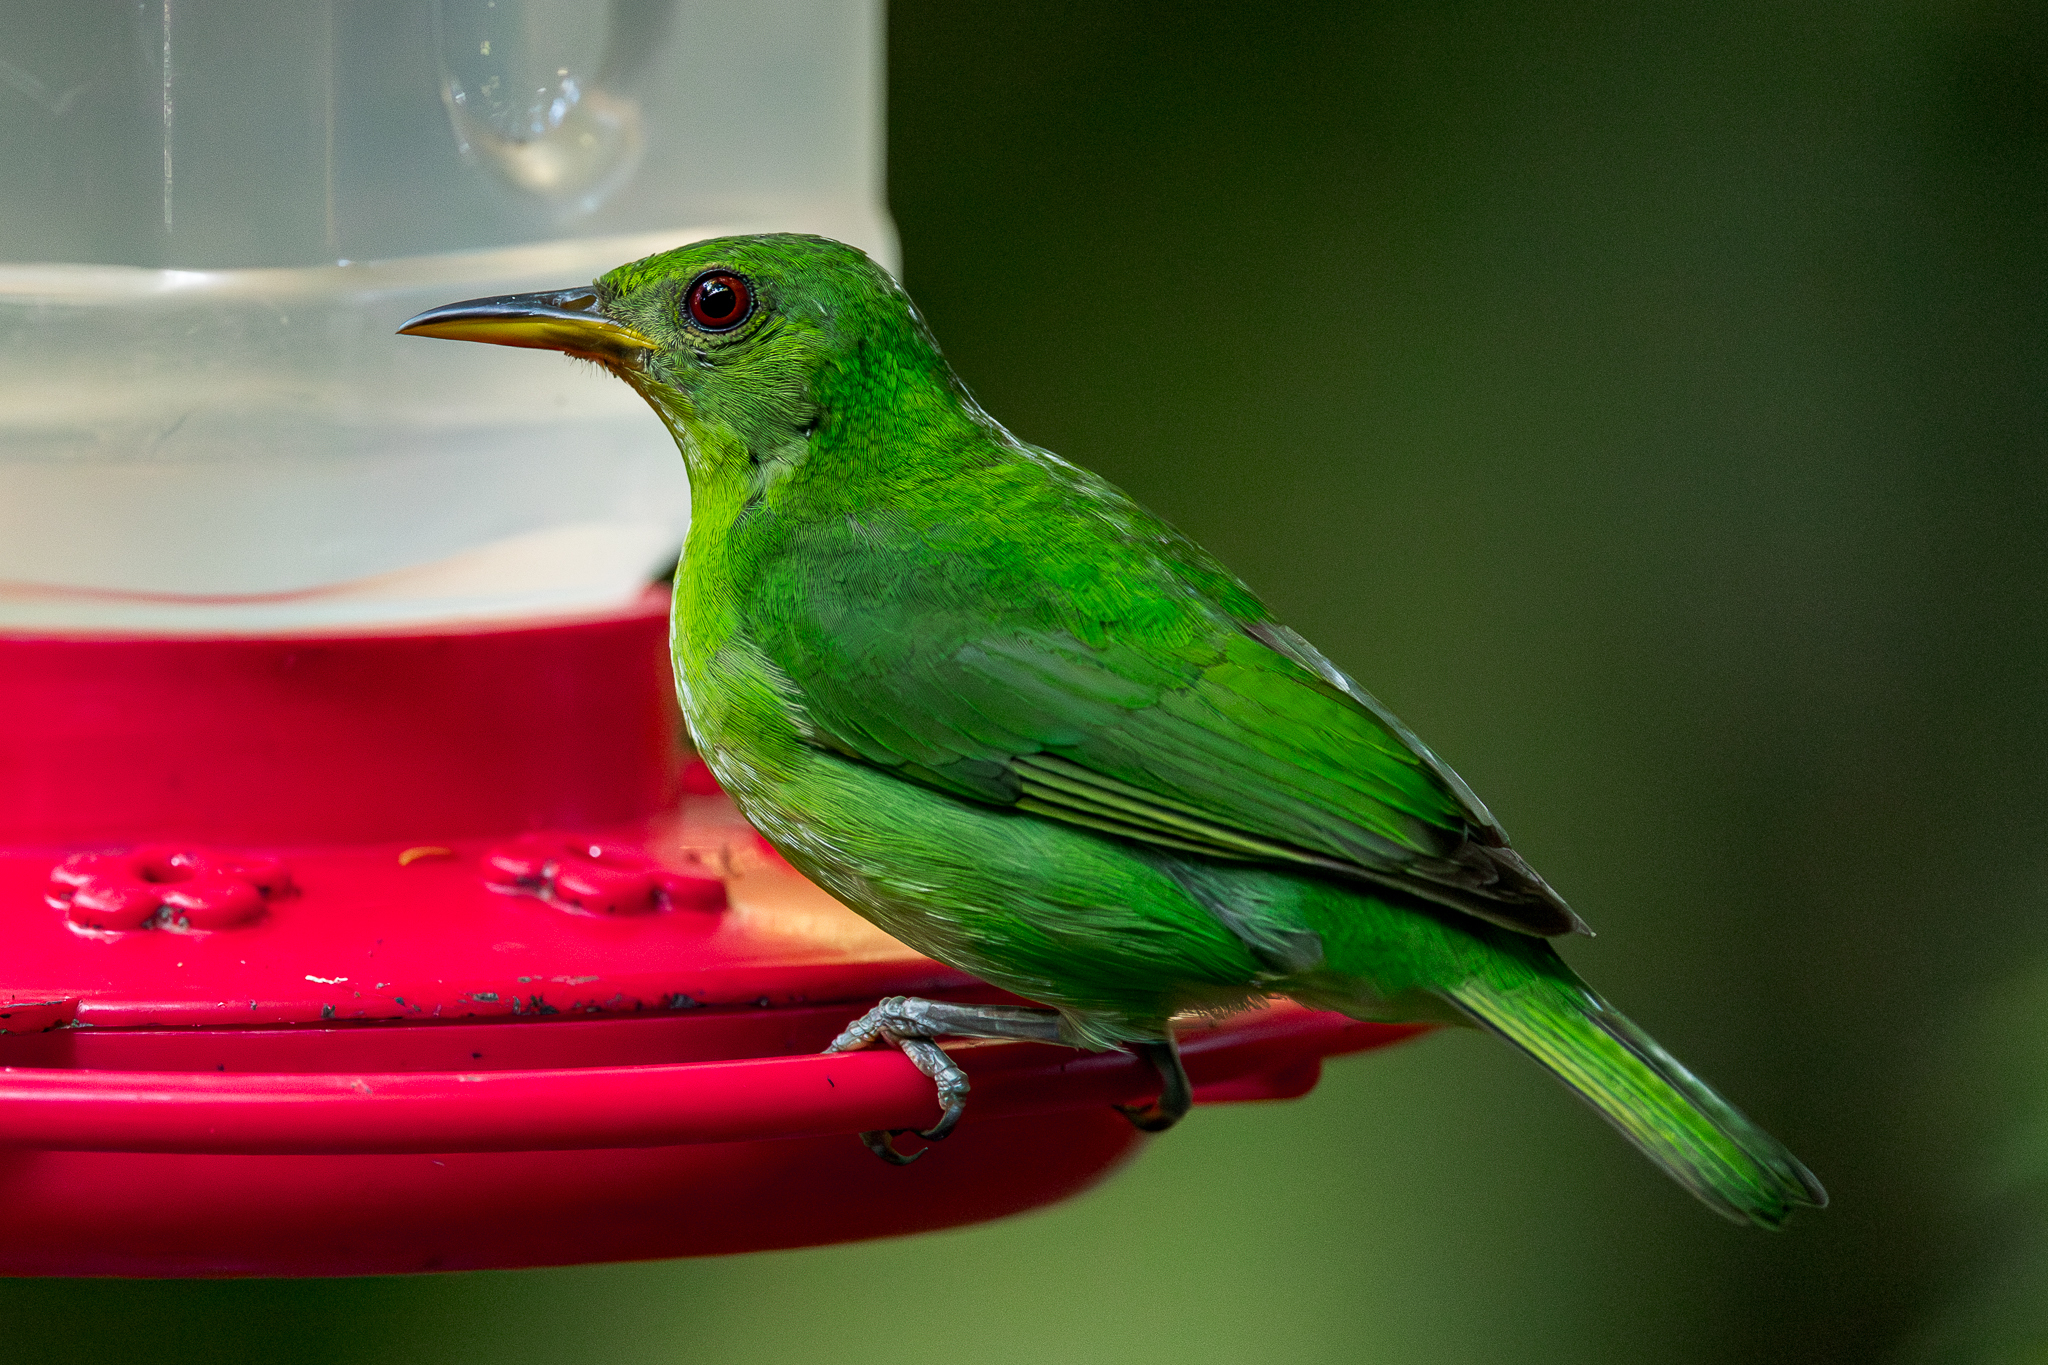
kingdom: Animalia
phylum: Chordata
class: Aves
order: Passeriformes
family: Thraupidae
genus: Chlorophanes
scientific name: Chlorophanes spiza
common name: Green honeycreeper
